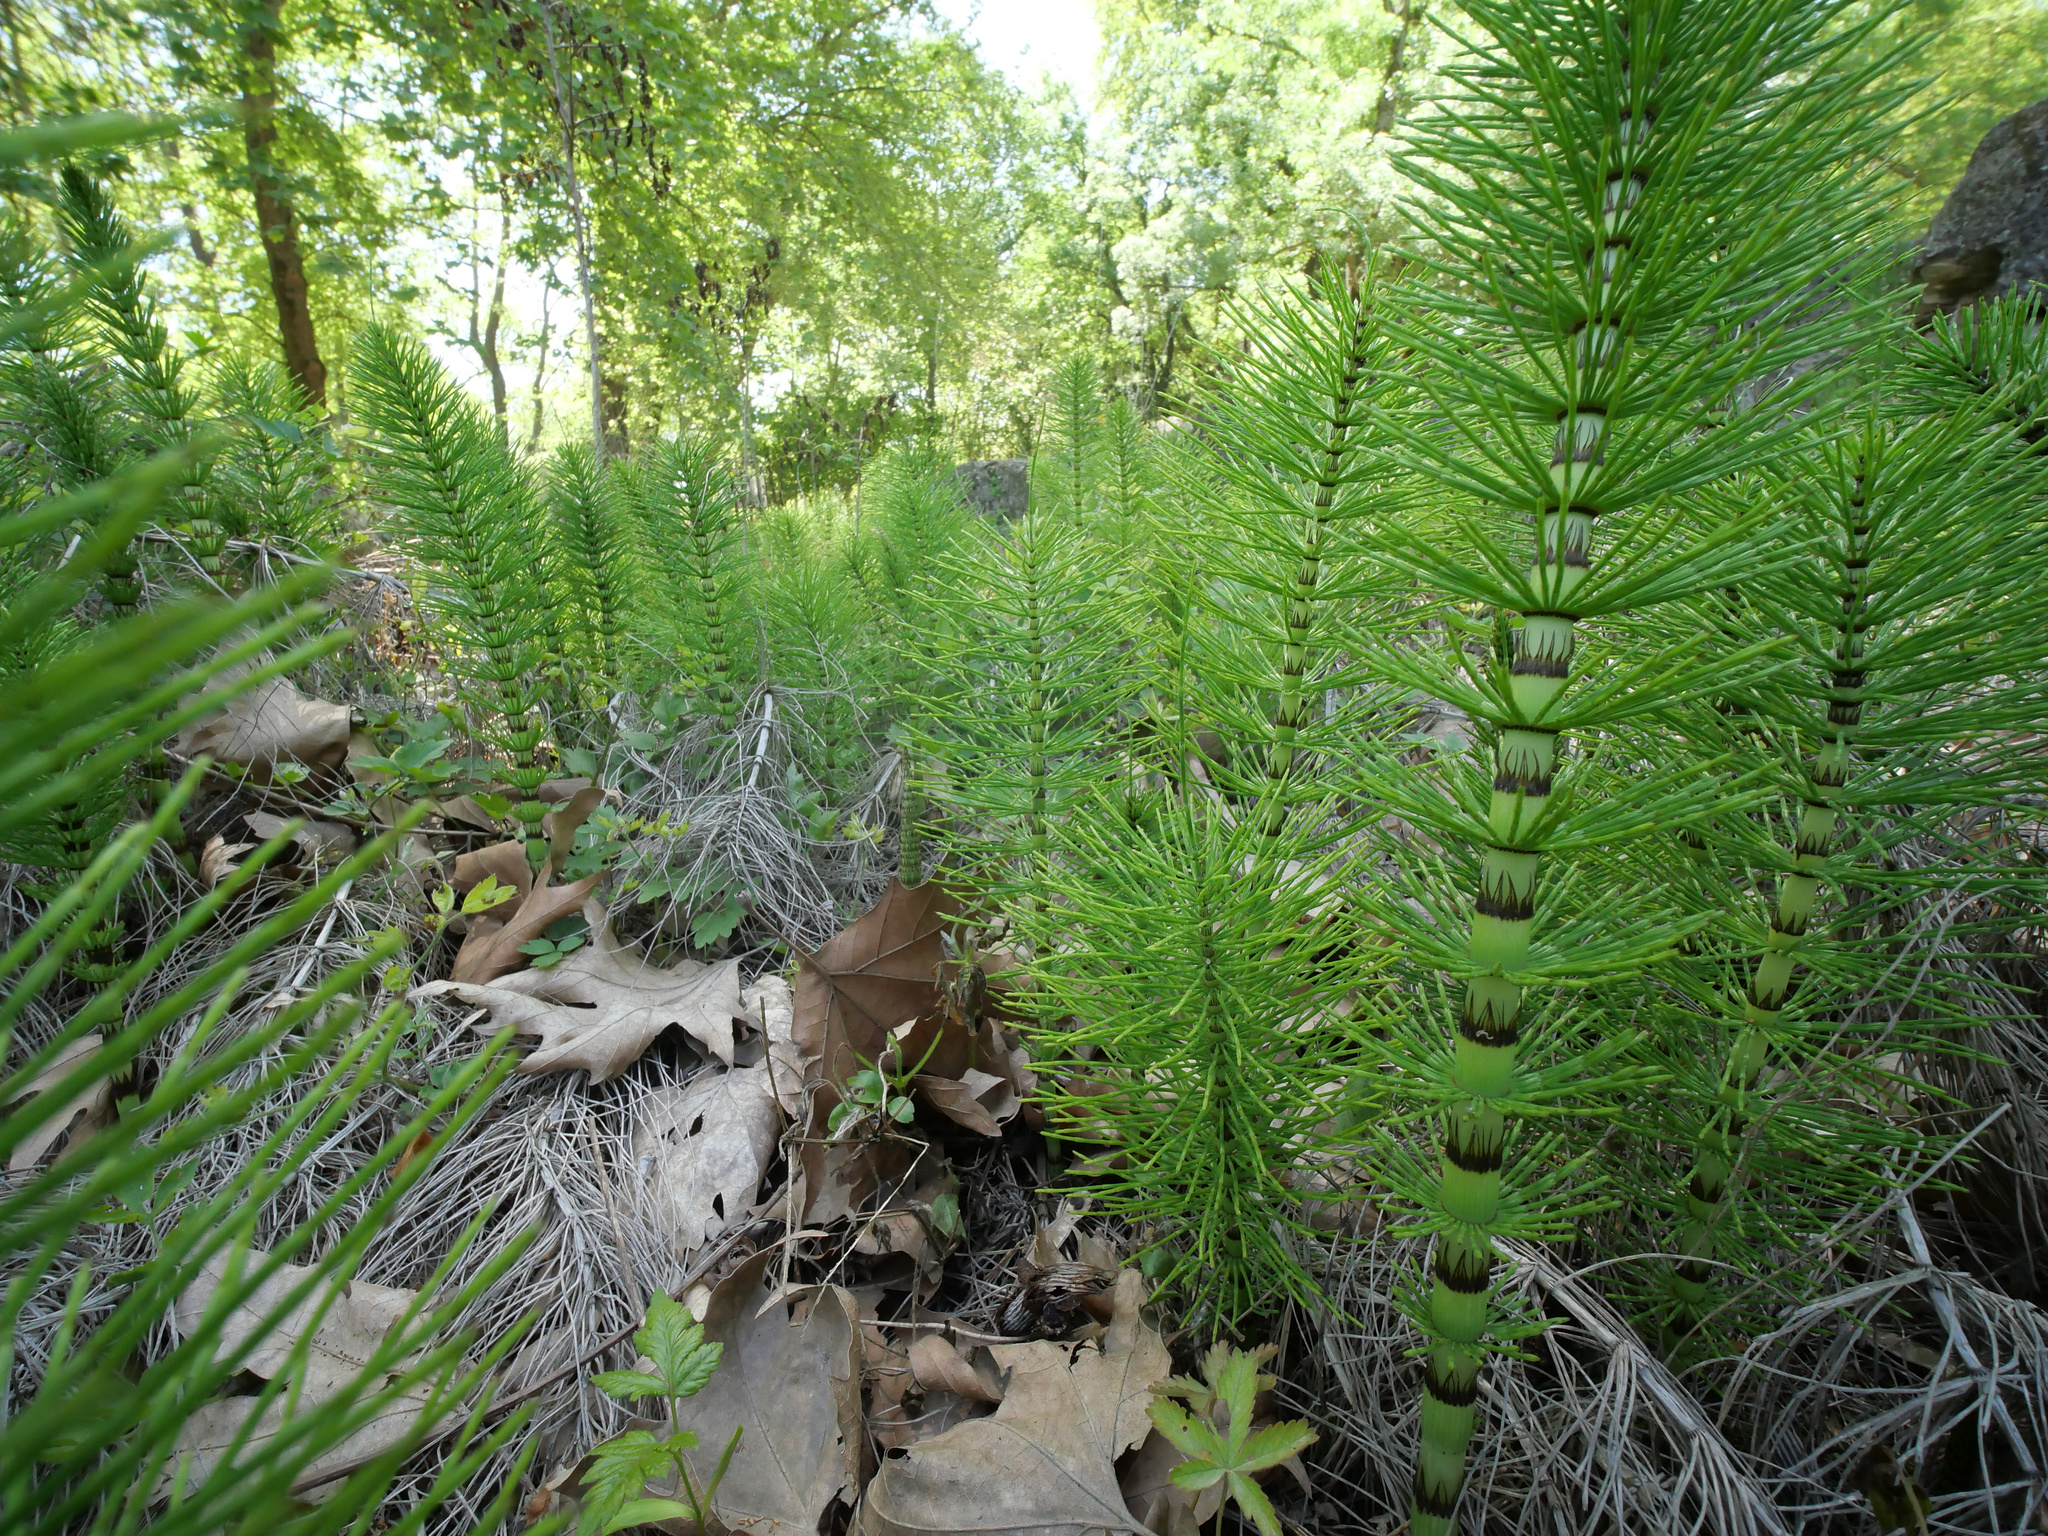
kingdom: Plantae
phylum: Tracheophyta
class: Polypodiopsida
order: Equisetales
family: Equisetaceae
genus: Equisetum
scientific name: Equisetum telmateia
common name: Great horsetail
